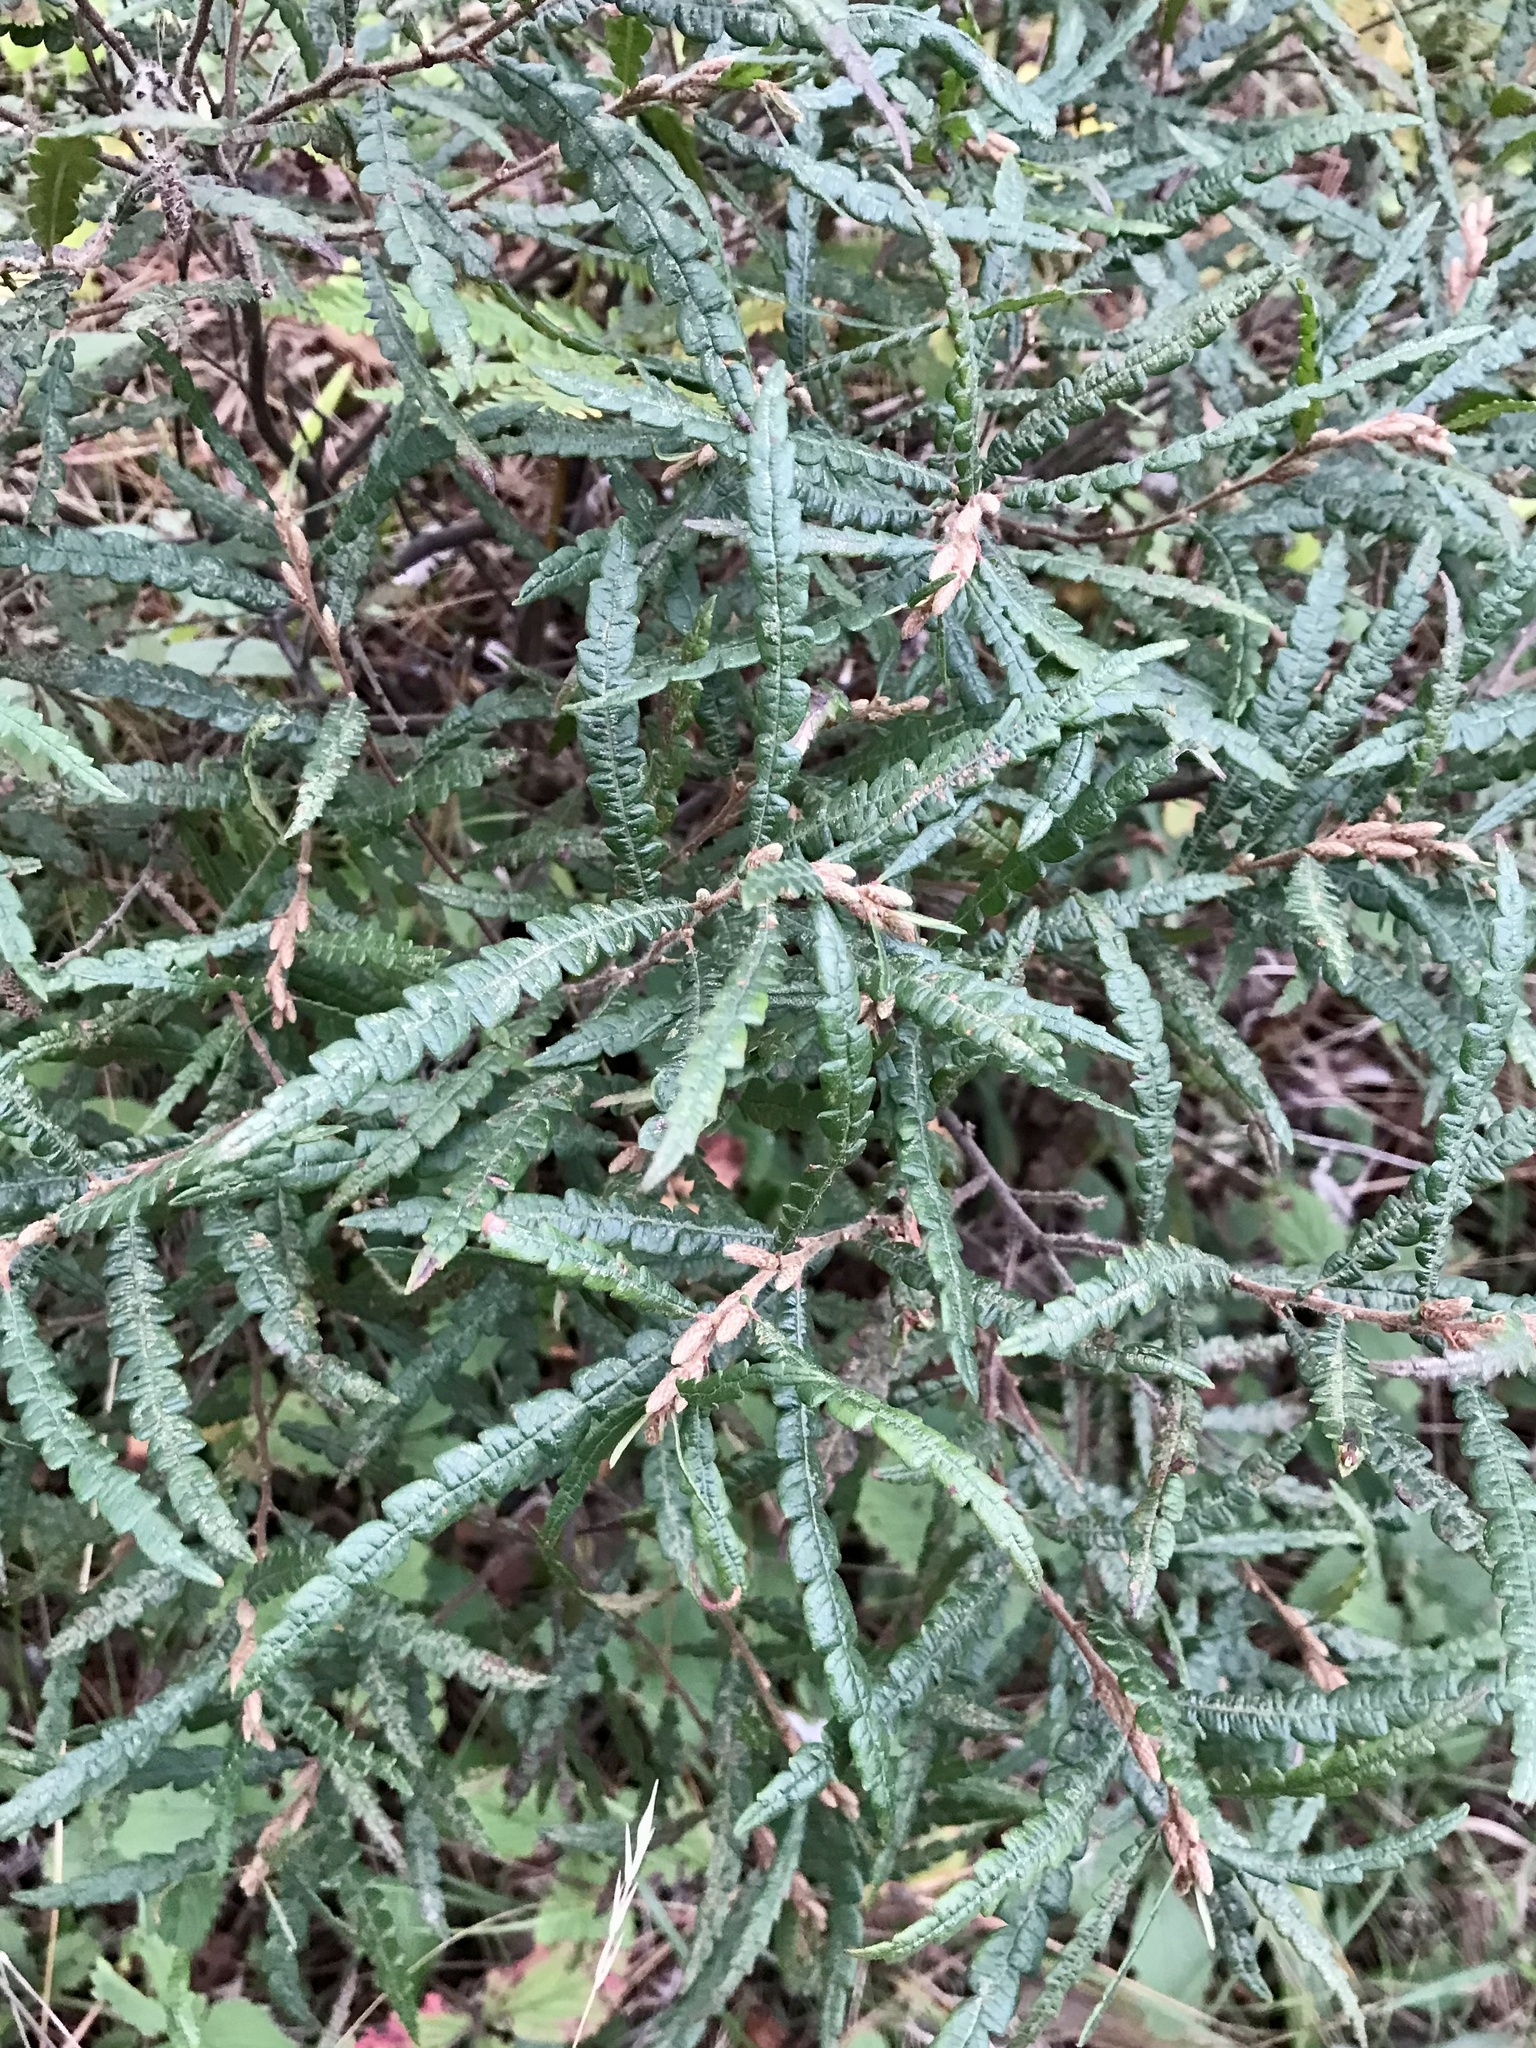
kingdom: Plantae
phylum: Tracheophyta
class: Magnoliopsida
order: Fagales
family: Myricaceae
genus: Comptonia
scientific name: Comptonia peregrina
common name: Sweet-fern
